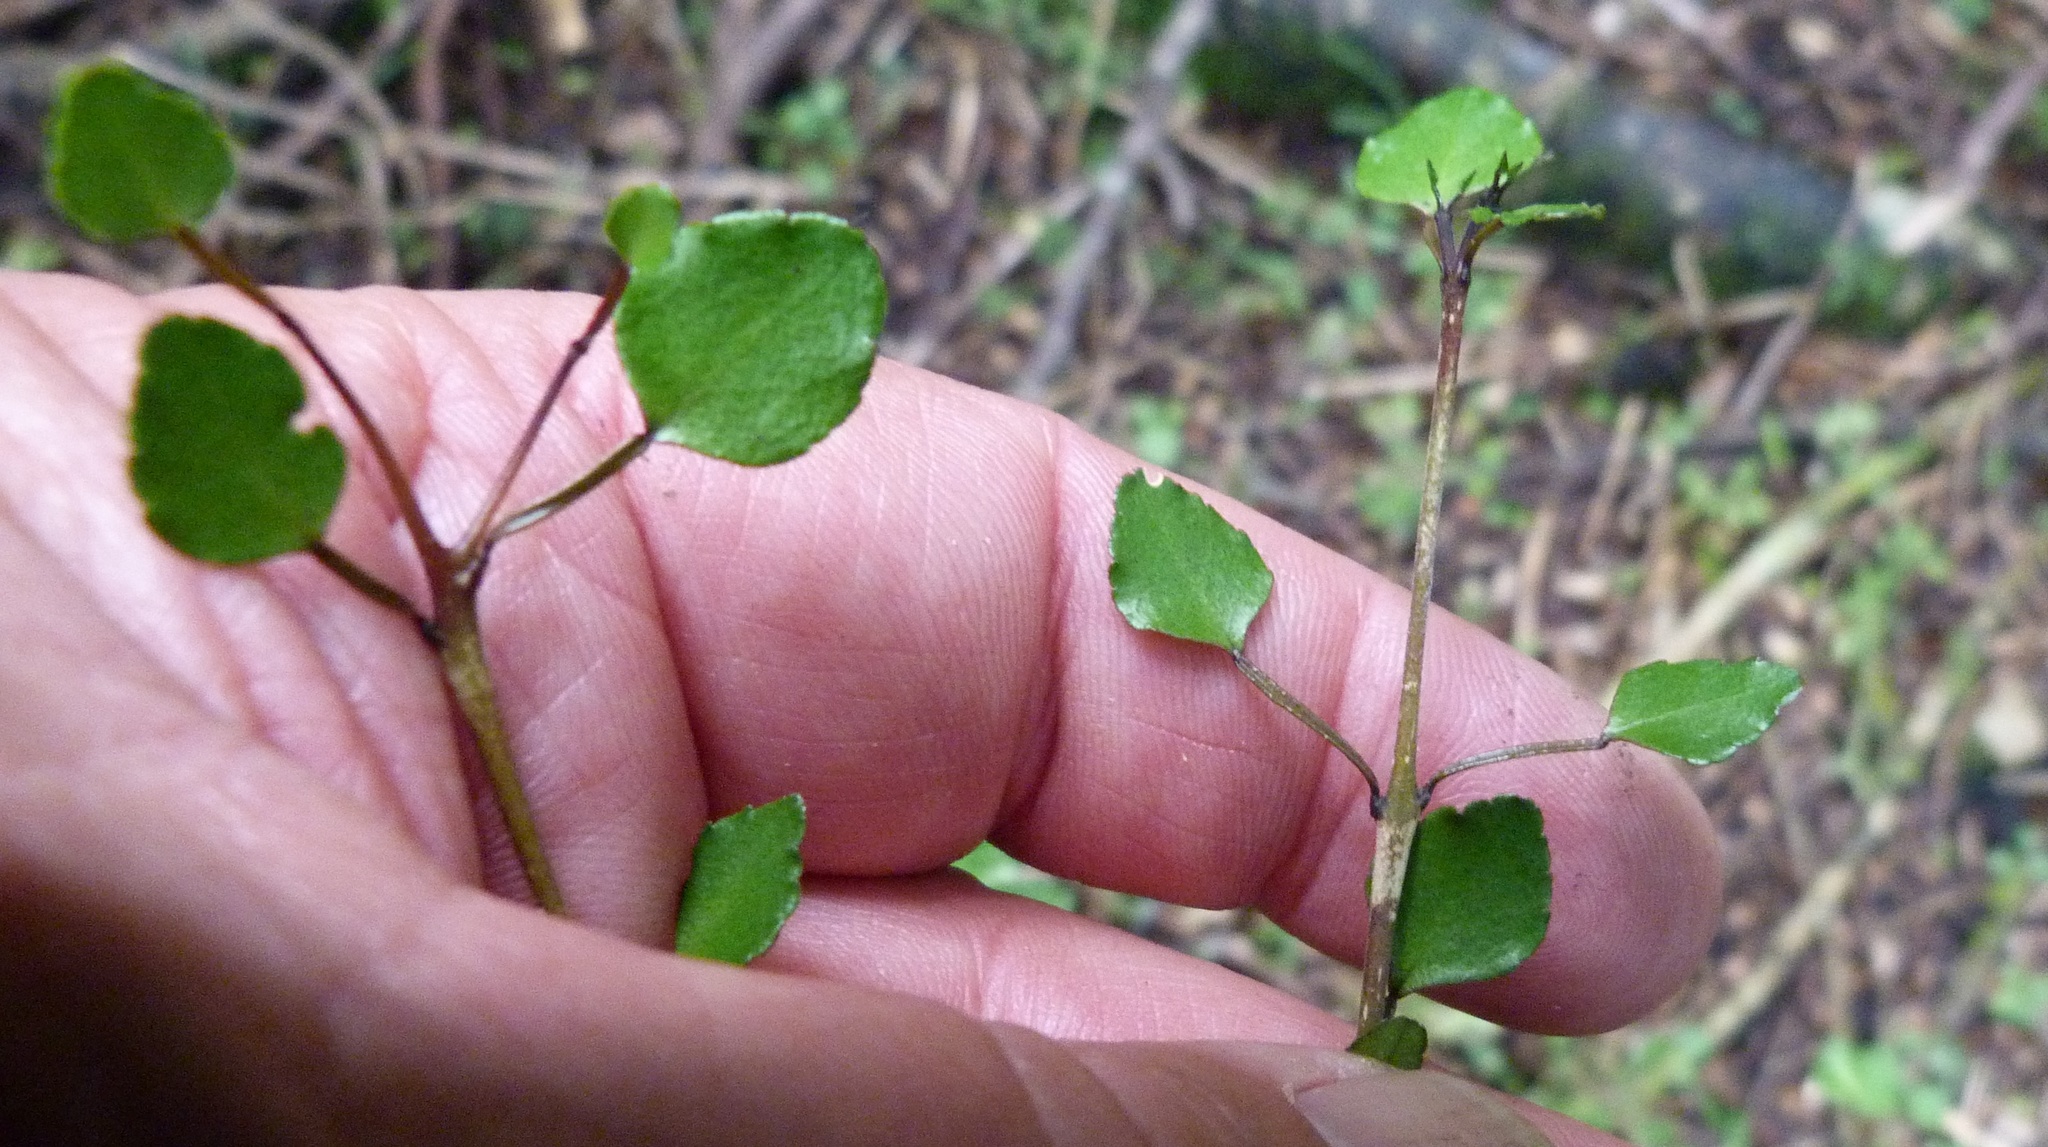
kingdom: Plantae
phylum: Tracheophyta
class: Magnoliopsida
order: Sapindales
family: Rutaceae
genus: Melicope
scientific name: Melicope simplex
